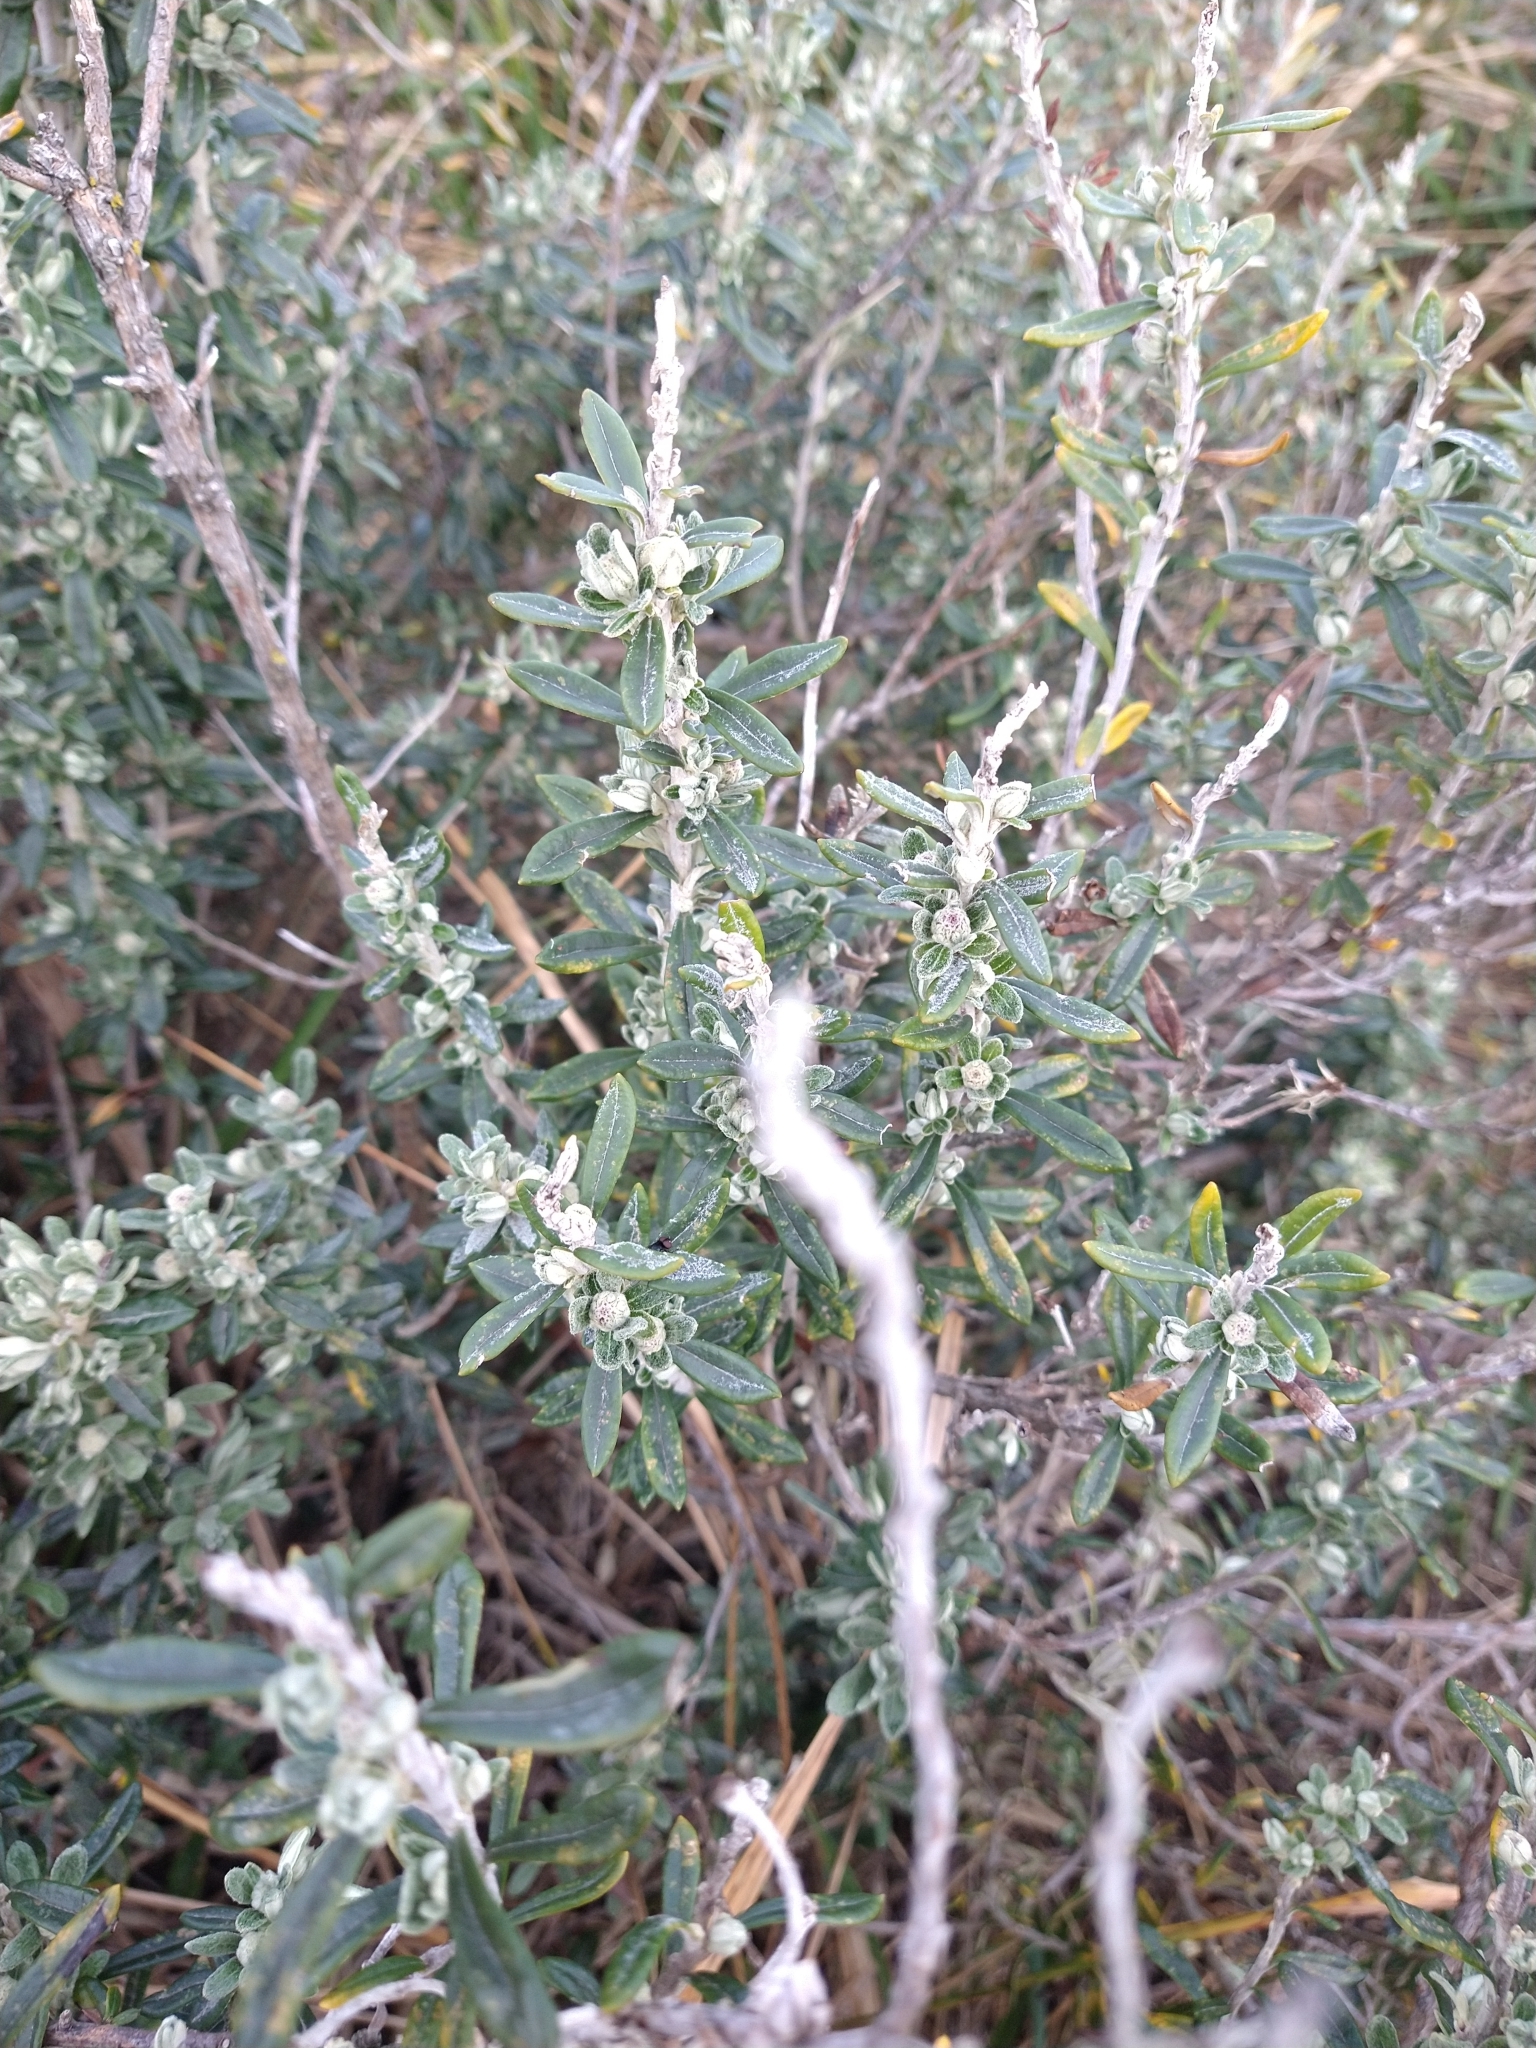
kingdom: Plantae
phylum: Tracheophyta
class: Magnoliopsida
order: Asterales
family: Asteraceae
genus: Chiliotrichum
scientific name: Chiliotrichum diffusum
